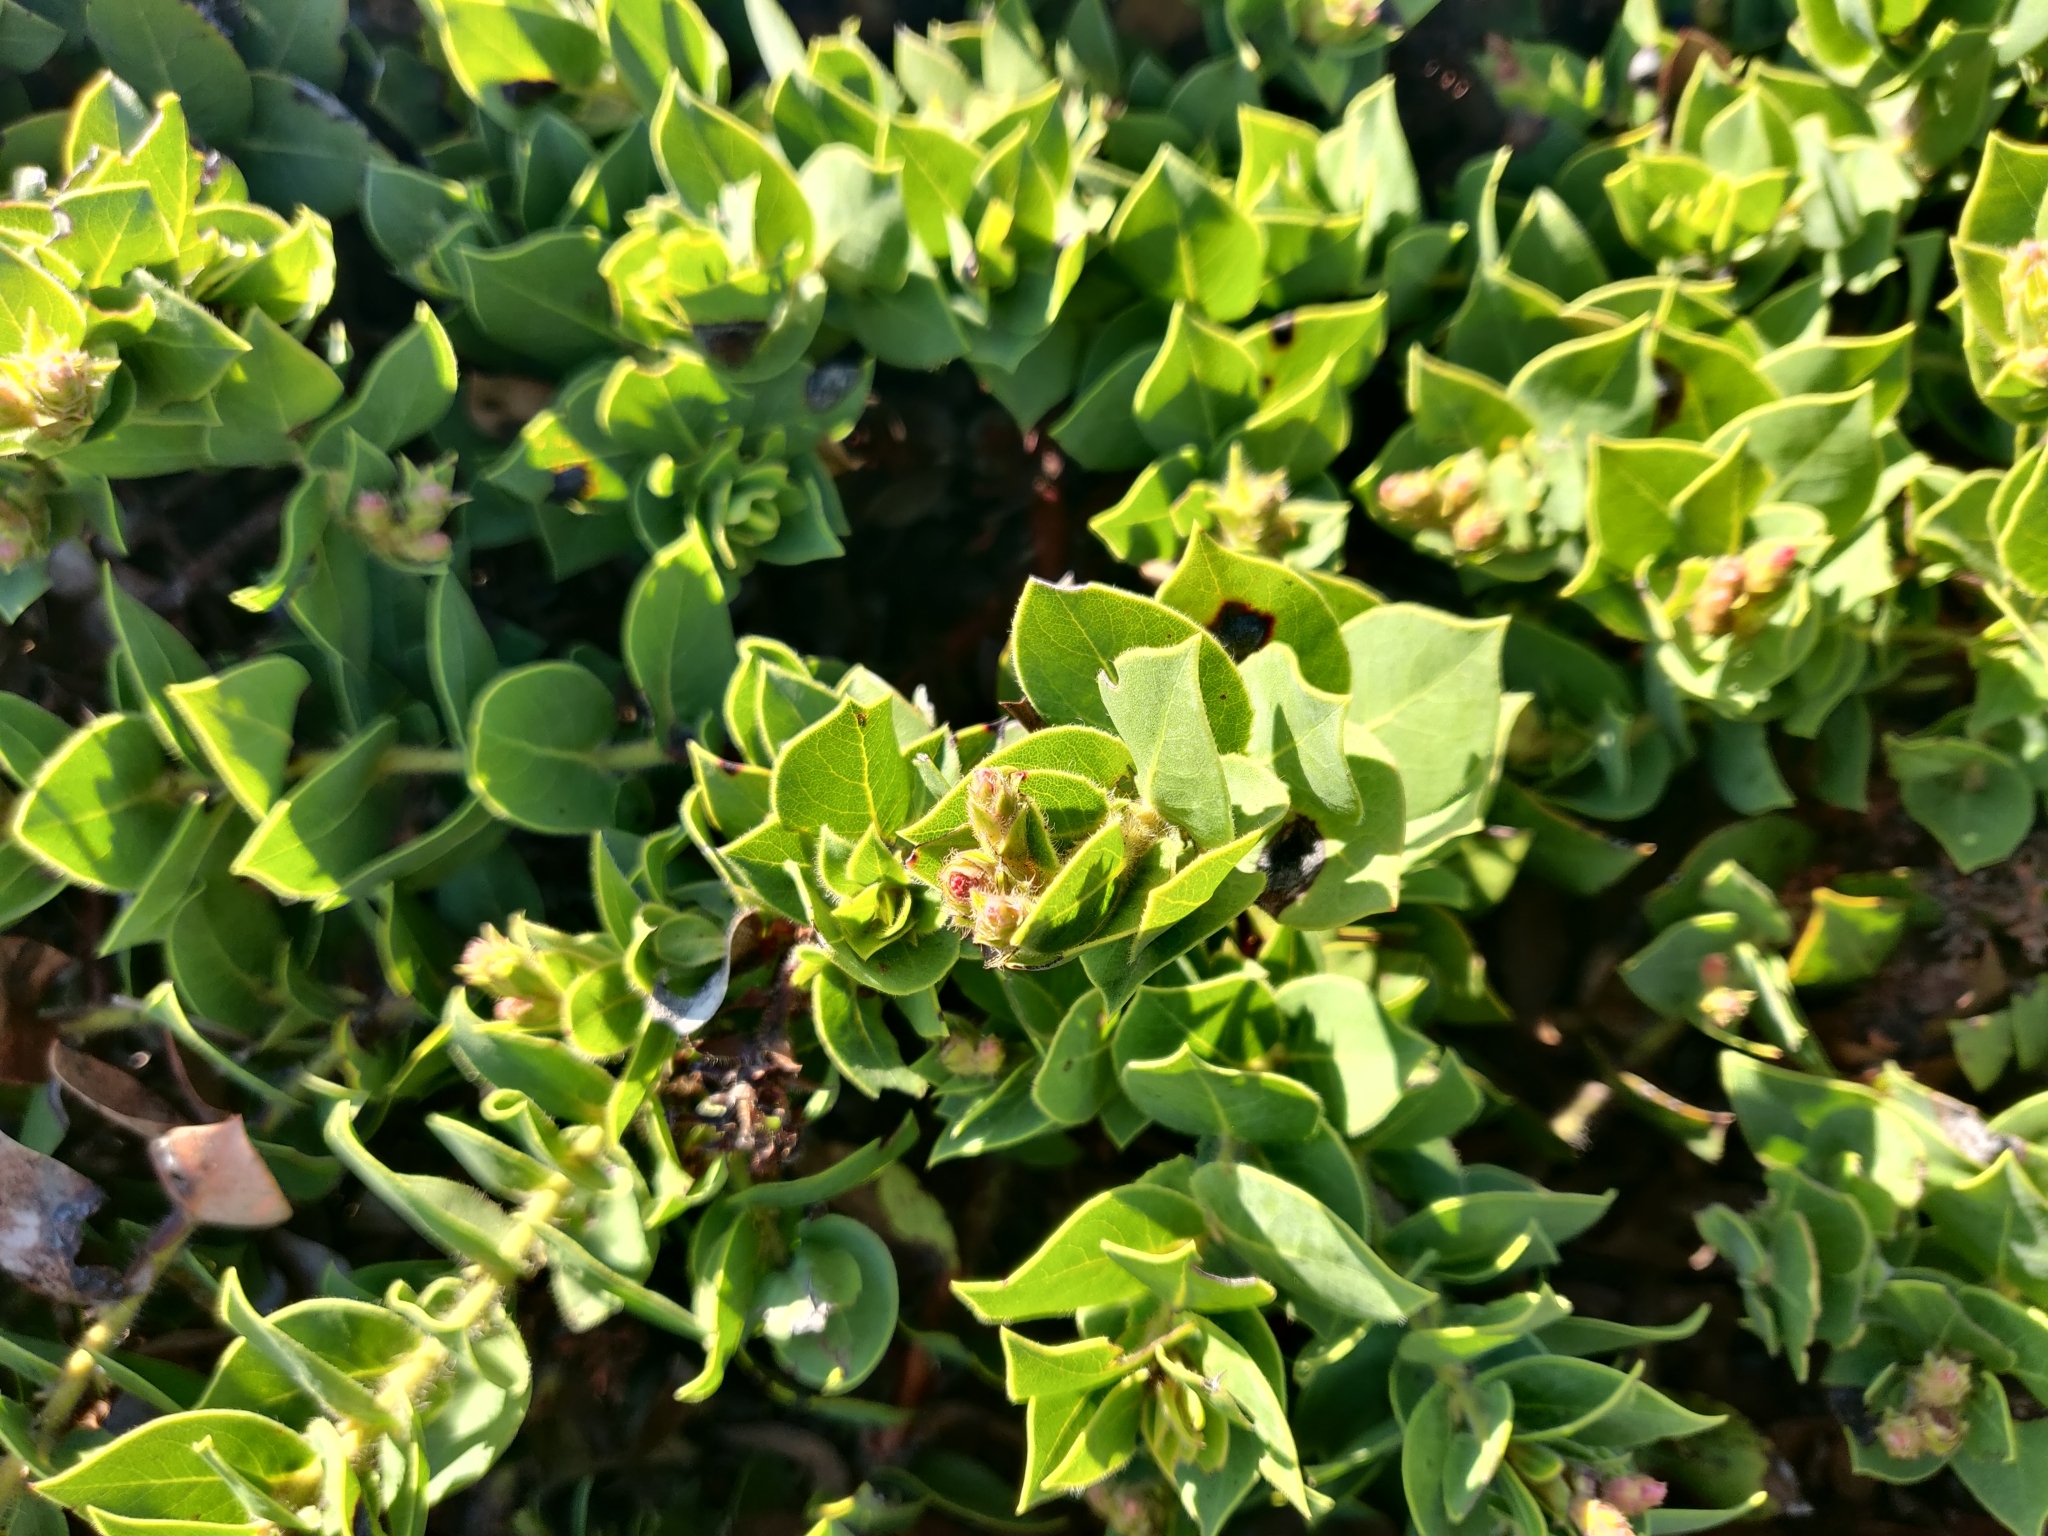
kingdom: Plantae
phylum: Tracheophyta
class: Magnoliopsida
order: Ericales
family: Ericaceae
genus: Arctostaphylos
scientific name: Arctostaphylos imbricata
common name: San bruno mountain manzanita
